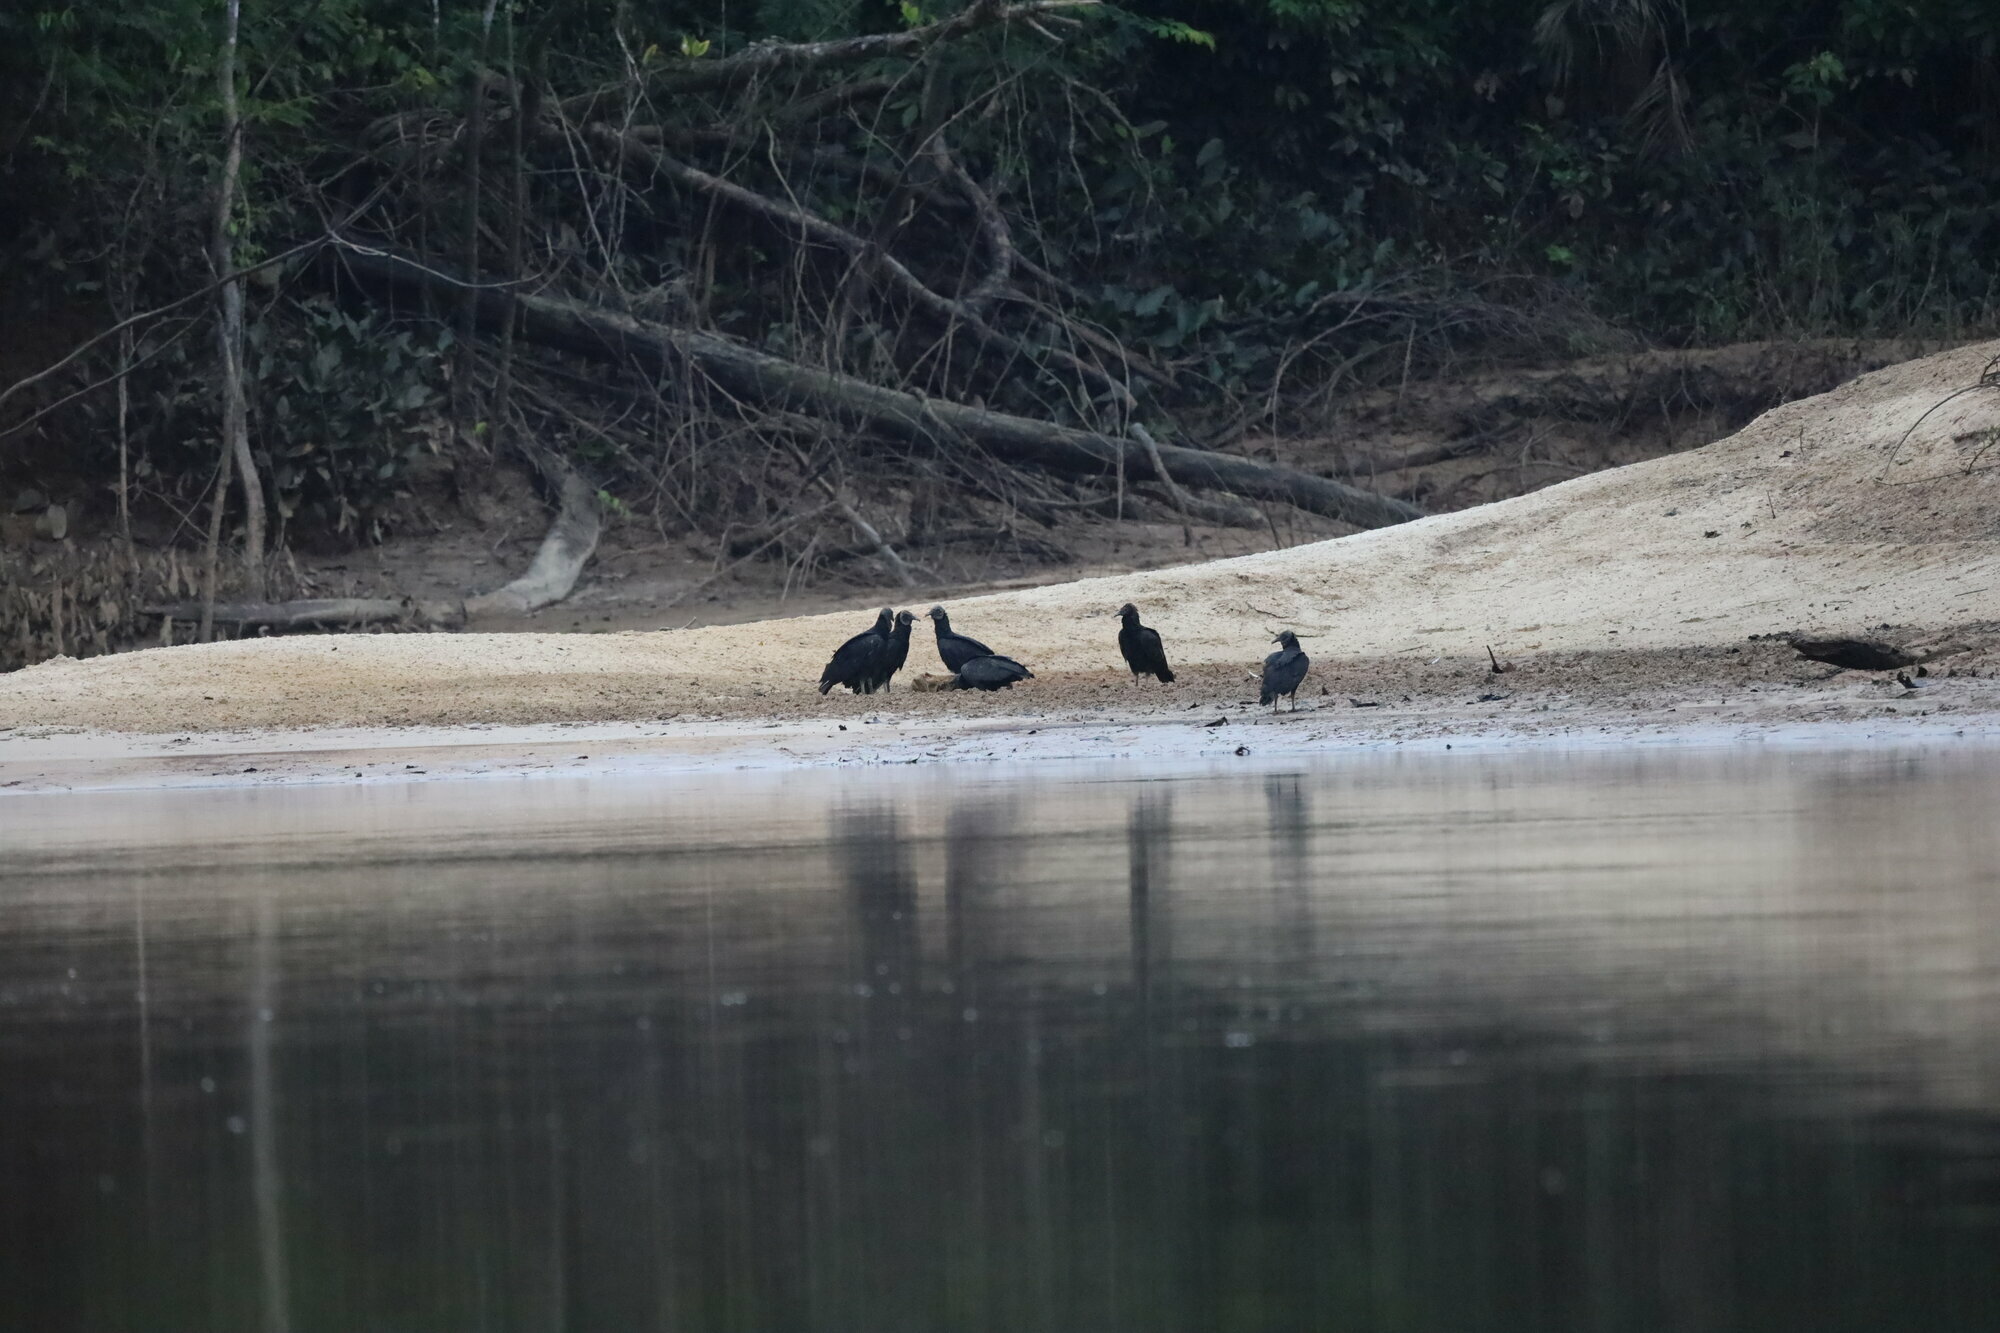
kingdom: Animalia
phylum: Chordata
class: Aves
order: Accipitriformes
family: Cathartidae
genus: Coragyps
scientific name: Coragyps atratus
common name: Black vulture
